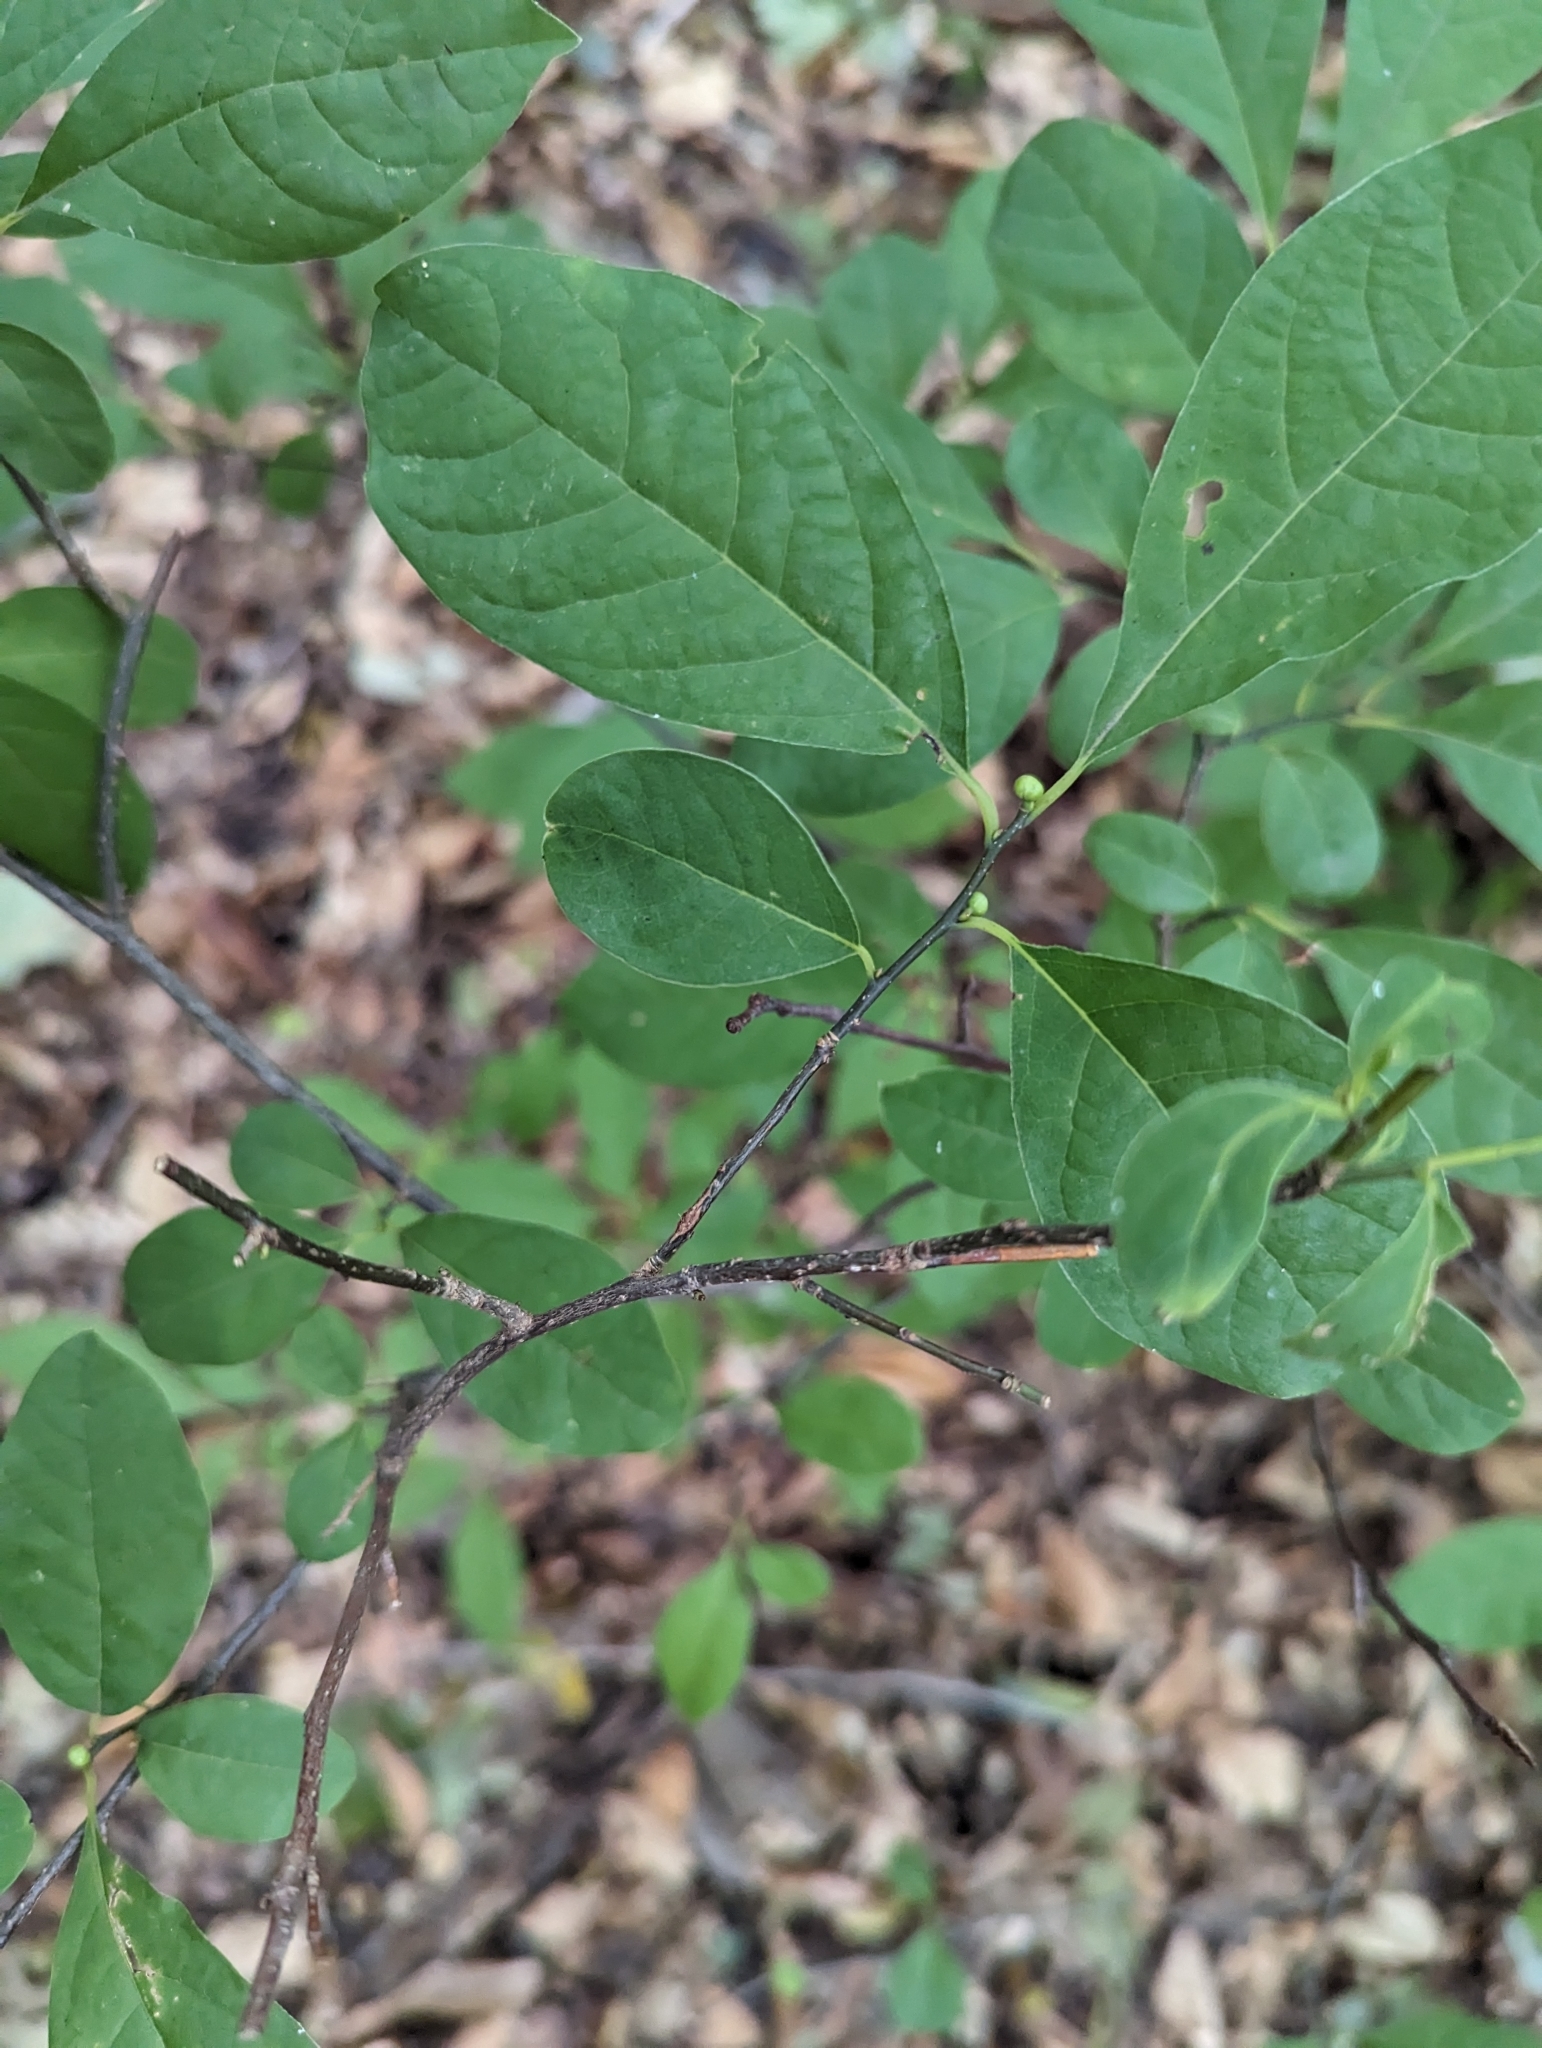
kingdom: Plantae
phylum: Tracheophyta
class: Magnoliopsida
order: Laurales
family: Lauraceae
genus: Lindera
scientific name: Lindera benzoin
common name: Spicebush
